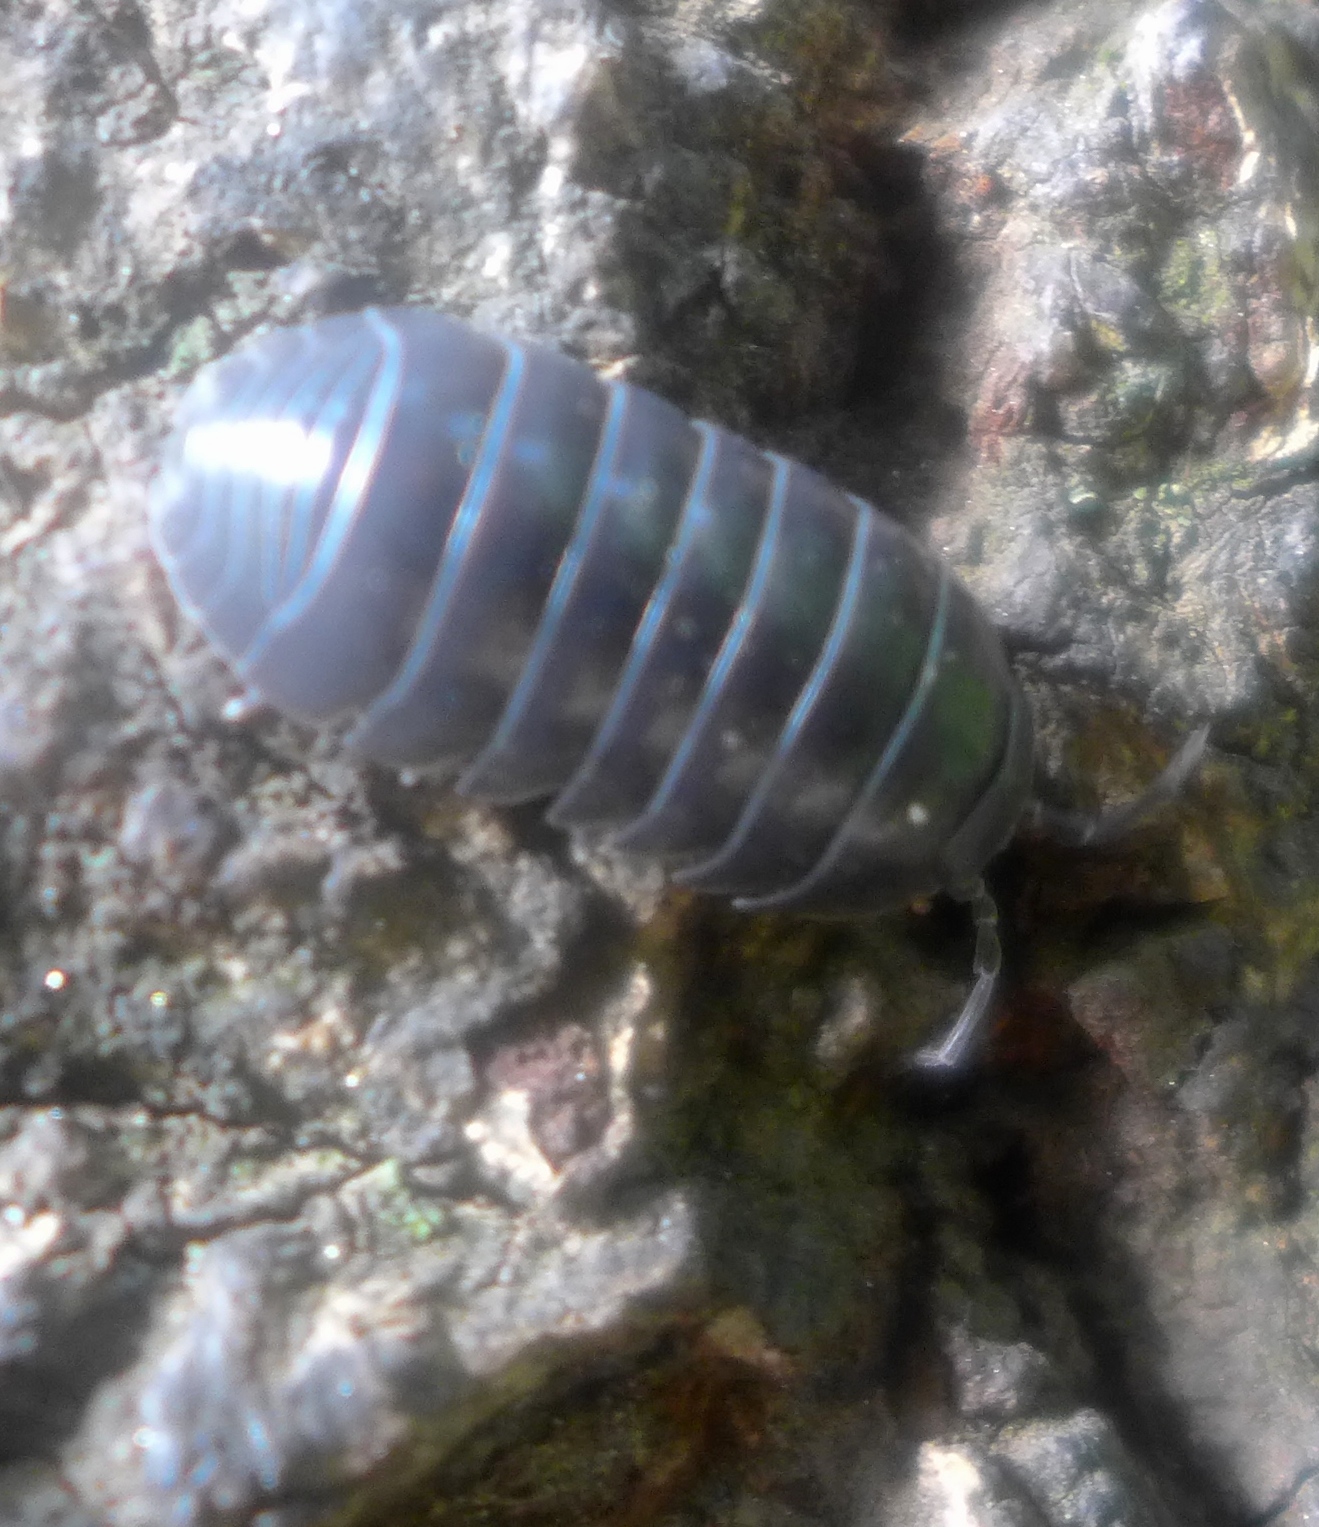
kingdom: Animalia
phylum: Arthropoda
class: Malacostraca
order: Isopoda
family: Armadillidiidae
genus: Armadillidium
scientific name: Armadillidium vulgare
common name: Common pill woodlouse
